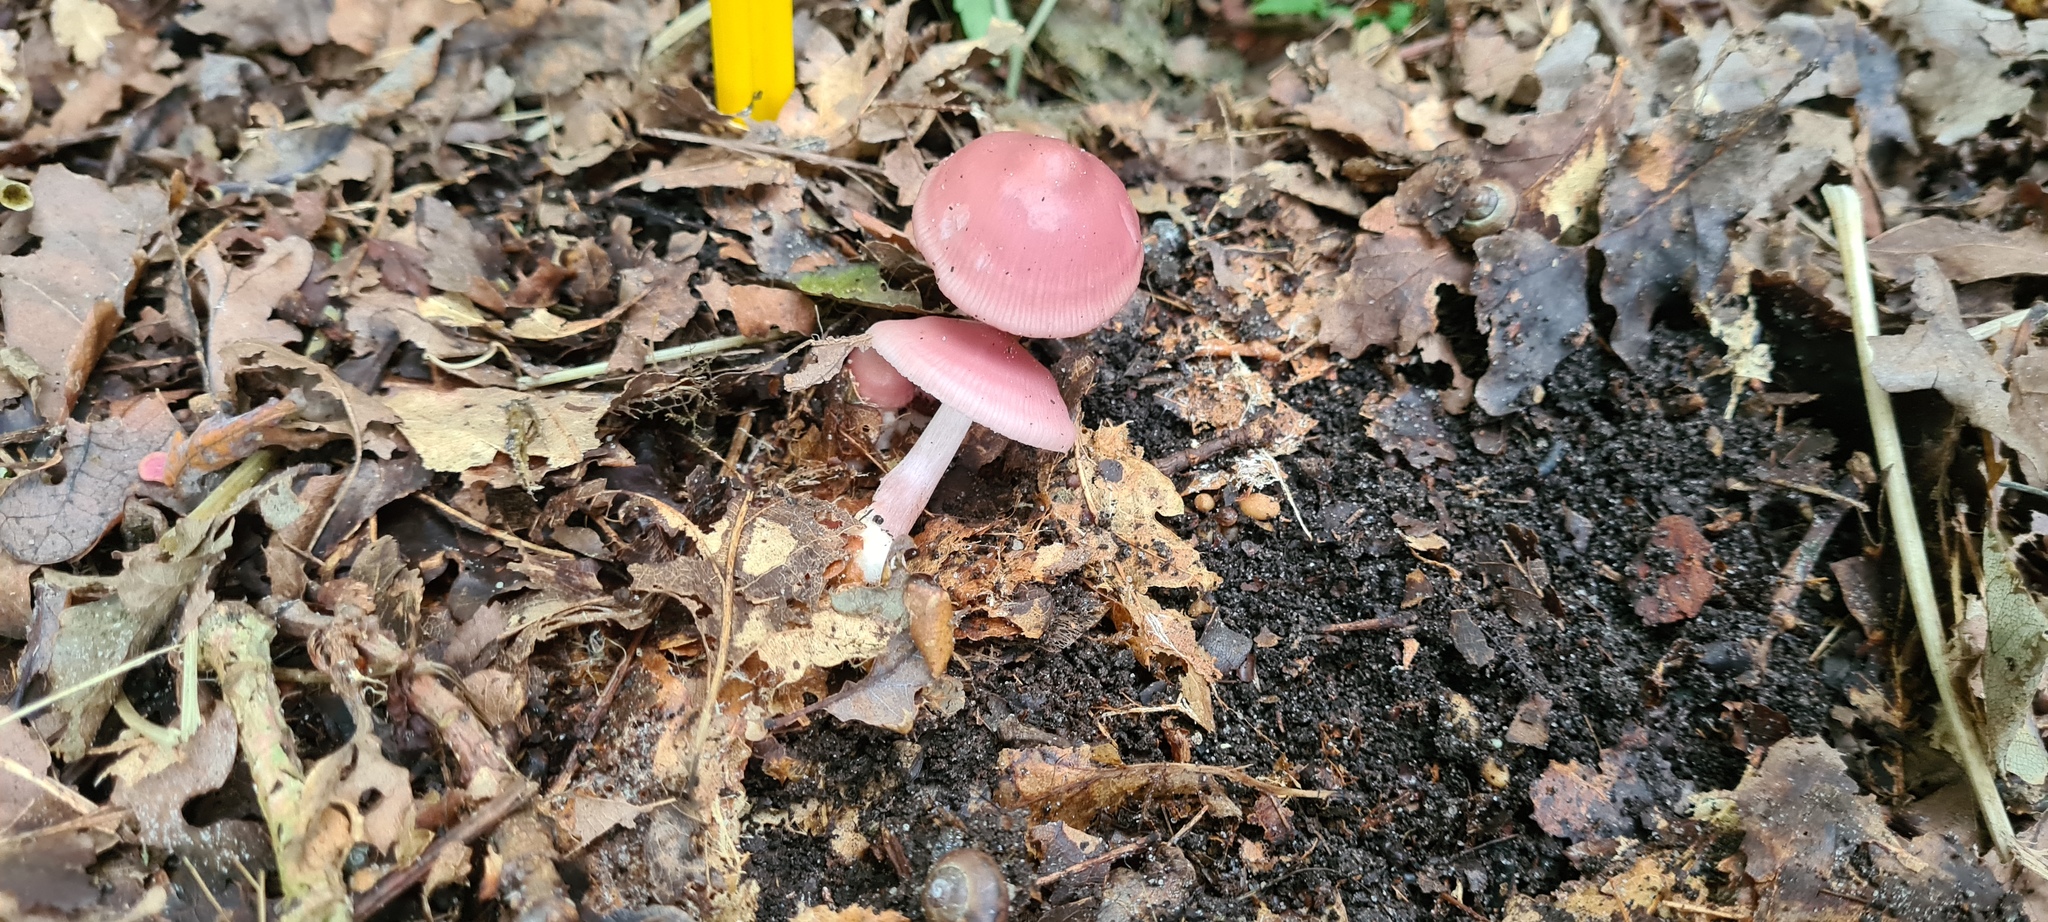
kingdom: Fungi
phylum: Basidiomycota
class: Agaricomycetes
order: Agaricales
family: Mycenaceae
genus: Mycena
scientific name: Mycena rosea
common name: Rosy bonnet
